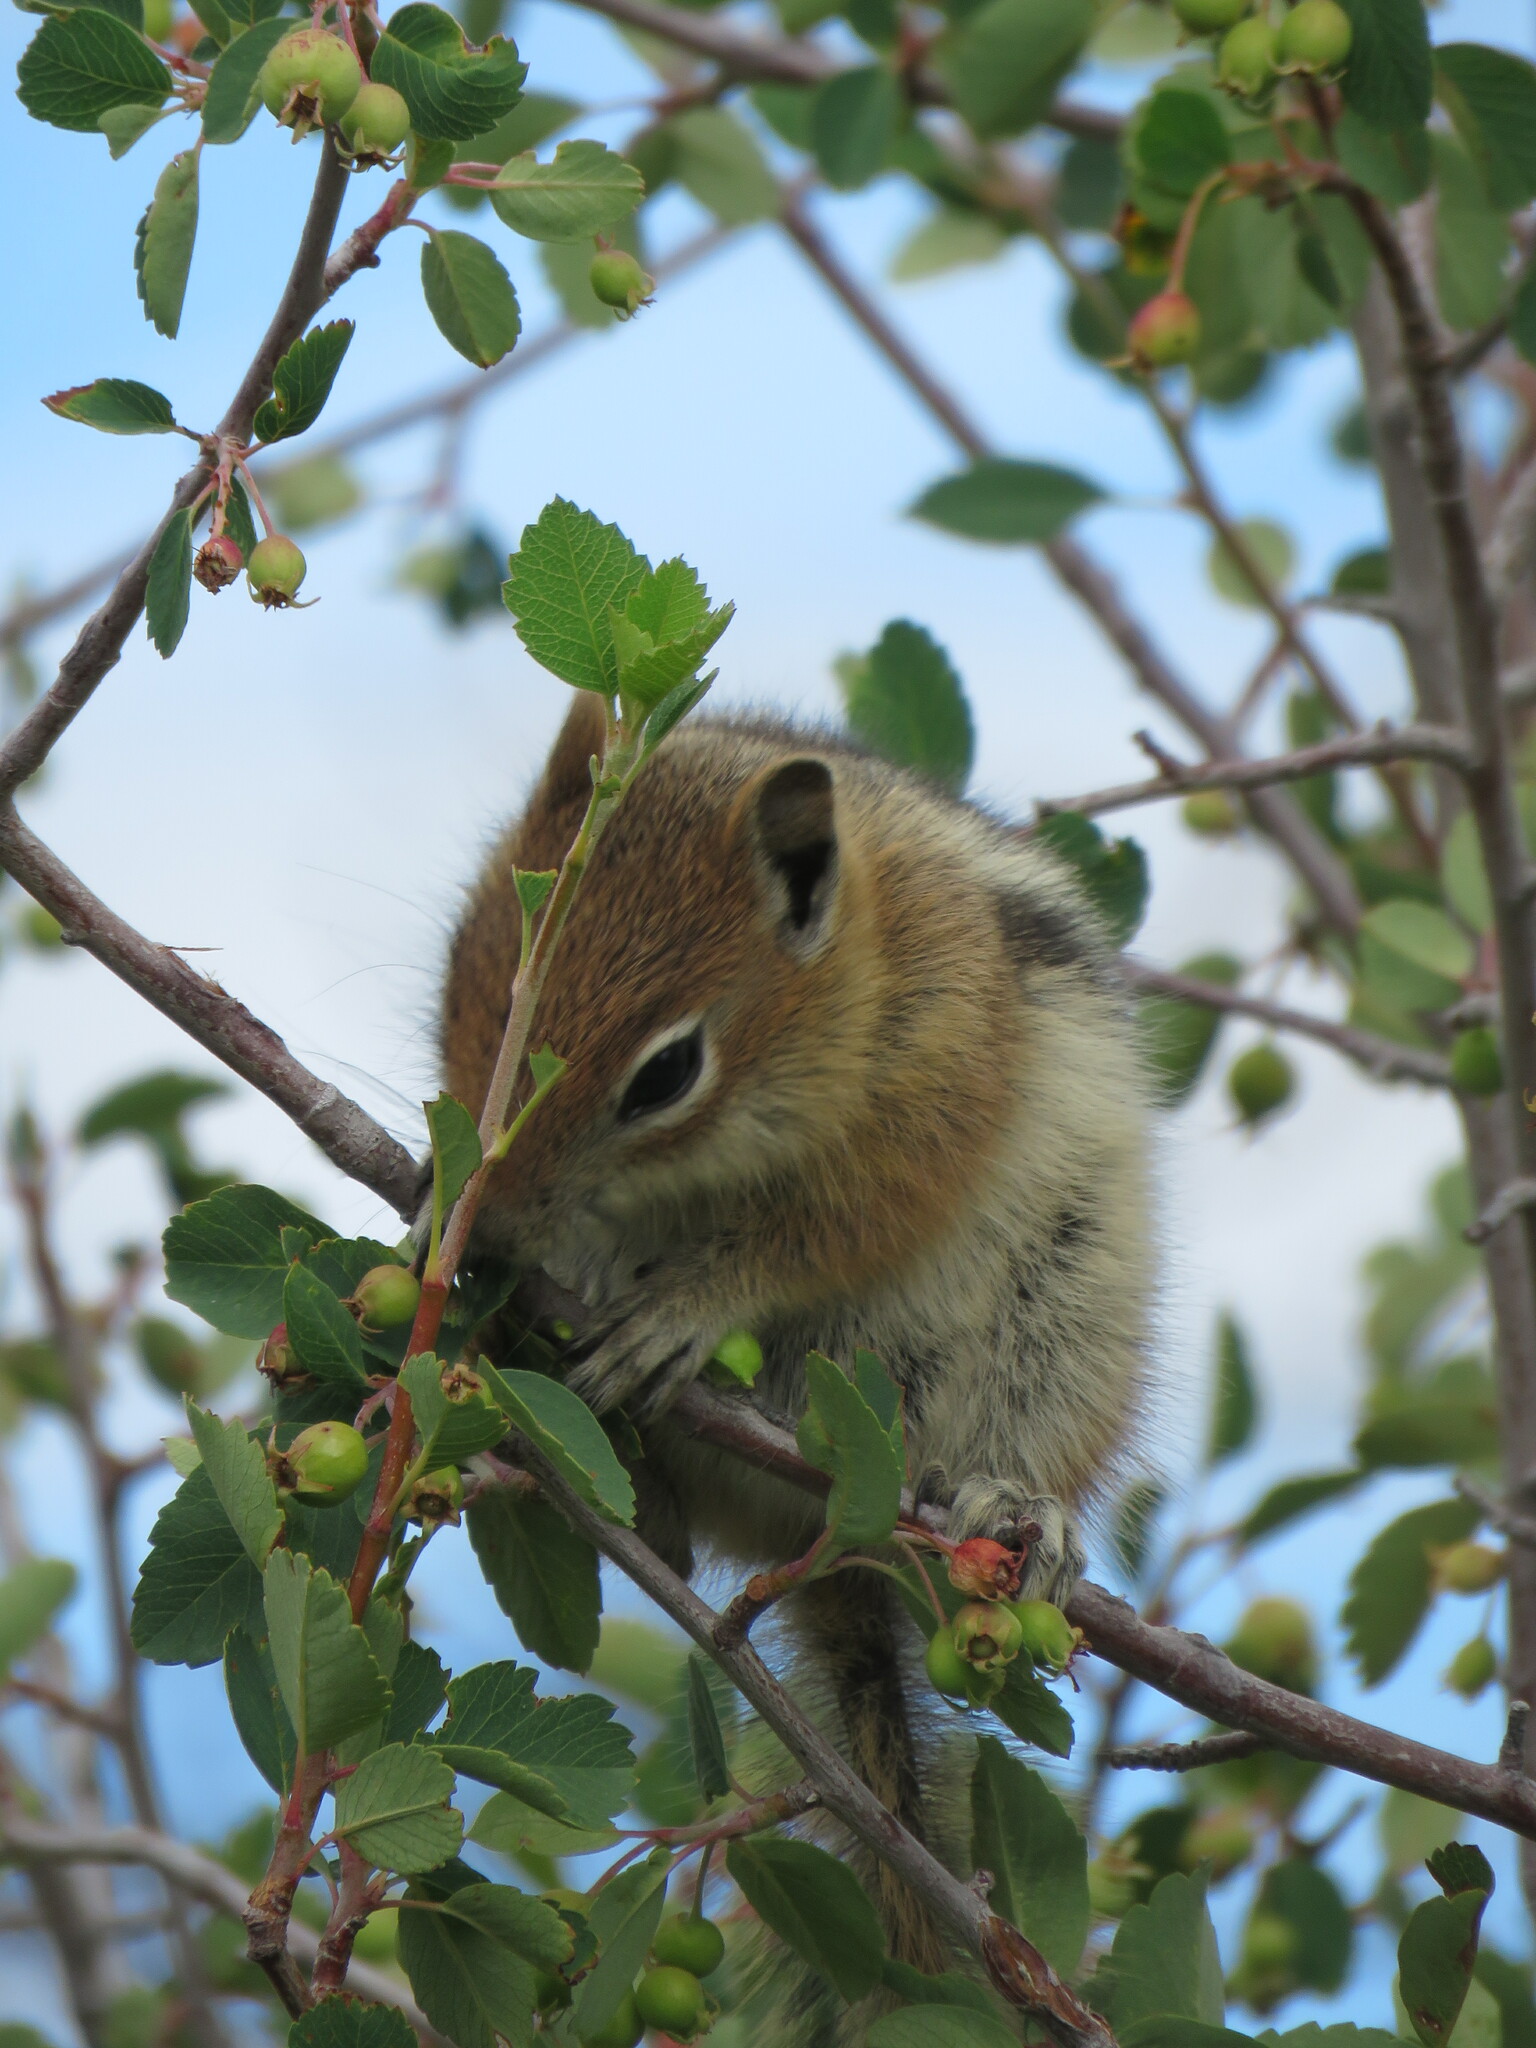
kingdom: Animalia
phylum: Chordata
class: Mammalia
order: Rodentia
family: Sciuridae
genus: Callospermophilus
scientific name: Callospermophilus lateralis
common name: Golden-mantled ground squirrel
